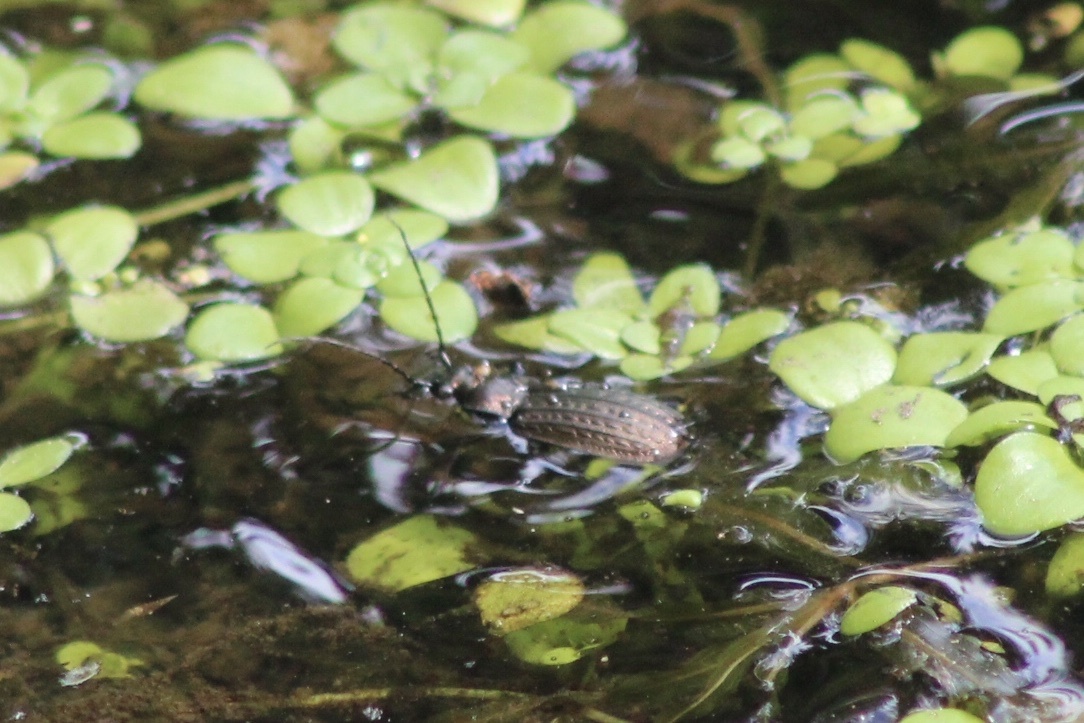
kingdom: Animalia
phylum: Arthropoda
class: Insecta
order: Coleoptera
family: Carabidae
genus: Carabus
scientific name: Carabus granulatus
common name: Granulate ground beetle
